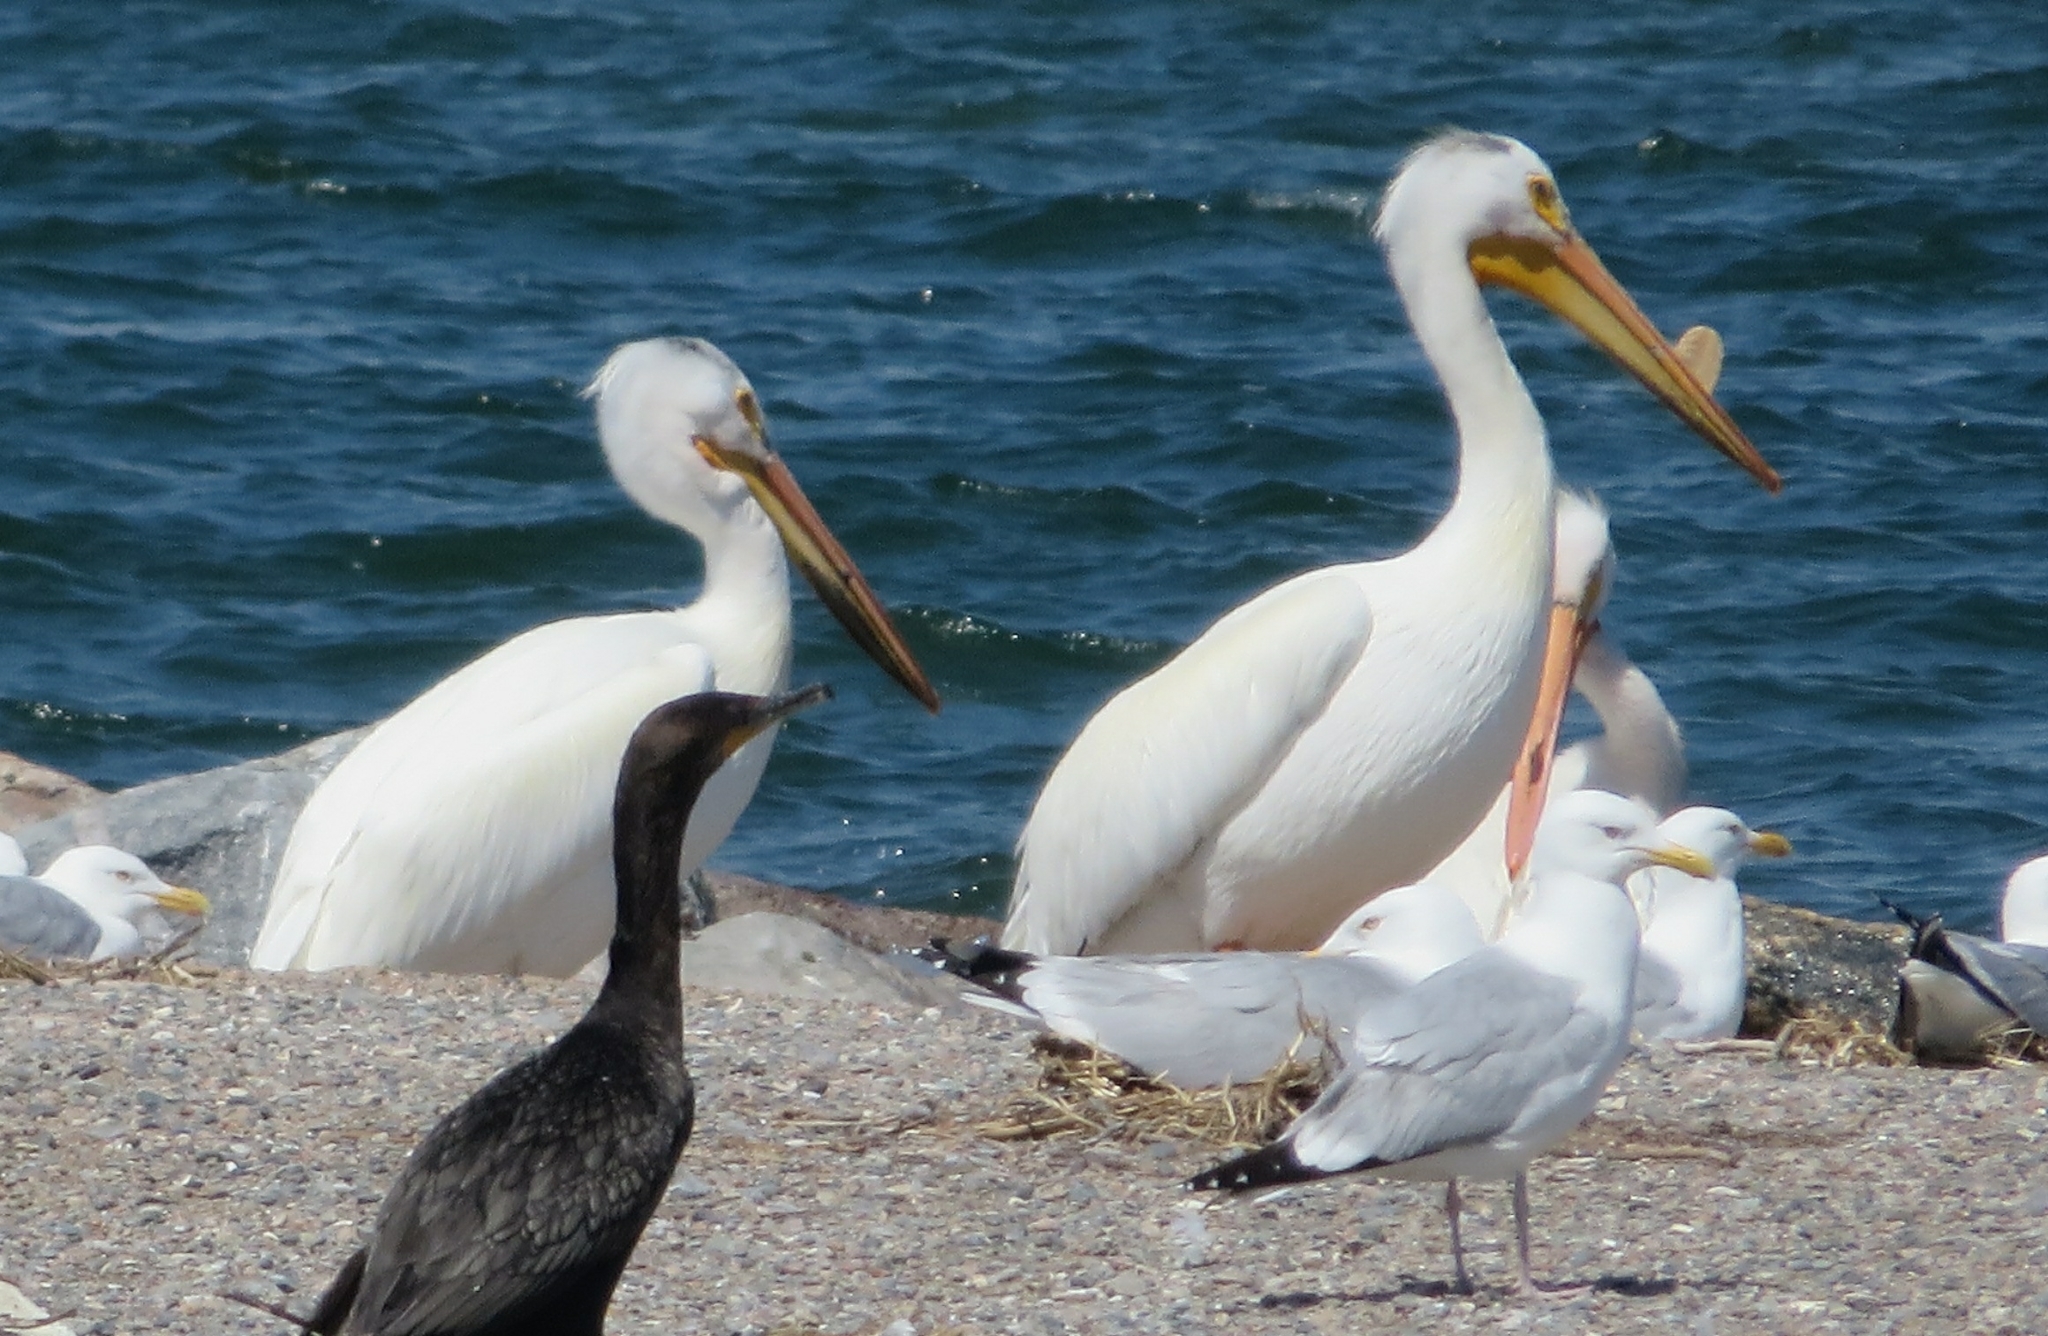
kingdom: Animalia
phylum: Chordata
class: Aves
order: Pelecaniformes
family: Pelecanidae
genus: Pelecanus
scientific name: Pelecanus erythrorhynchos
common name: American white pelican
